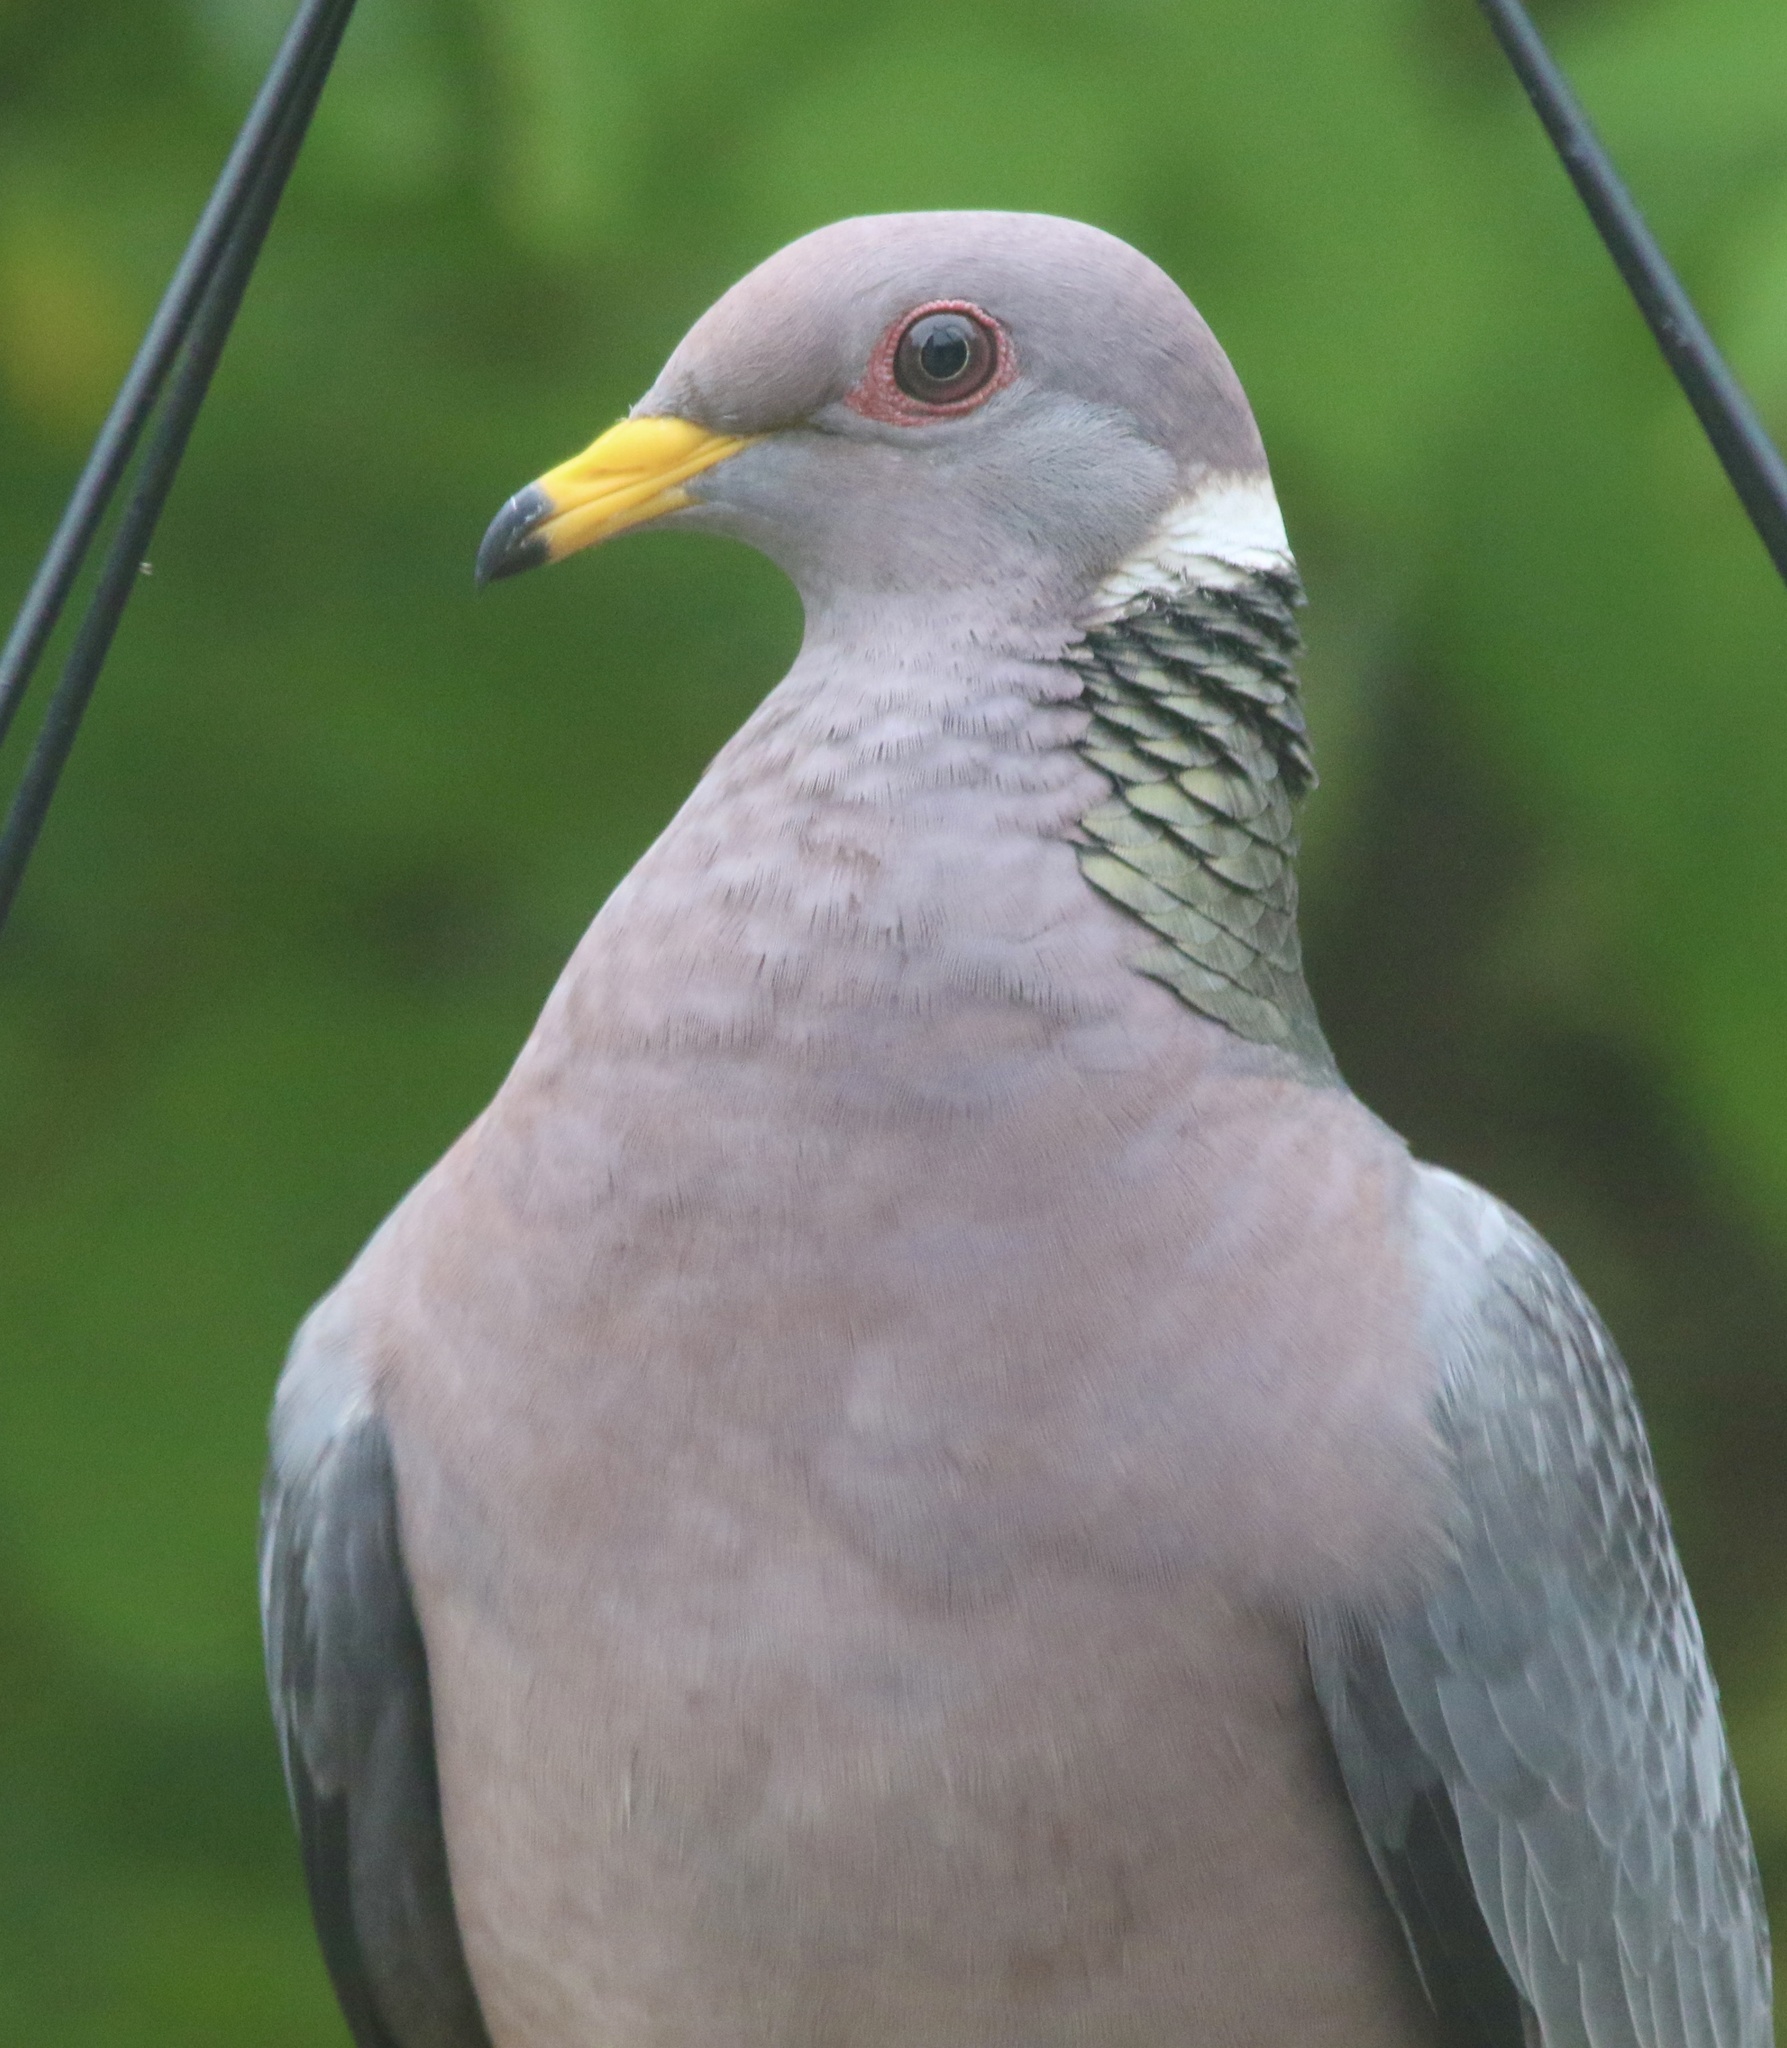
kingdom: Animalia
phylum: Chordata
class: Aves
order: Columbiformes
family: Columbidae
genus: Patagioenas
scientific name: Patagioenas fasciata
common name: Band-tailed pigeon
